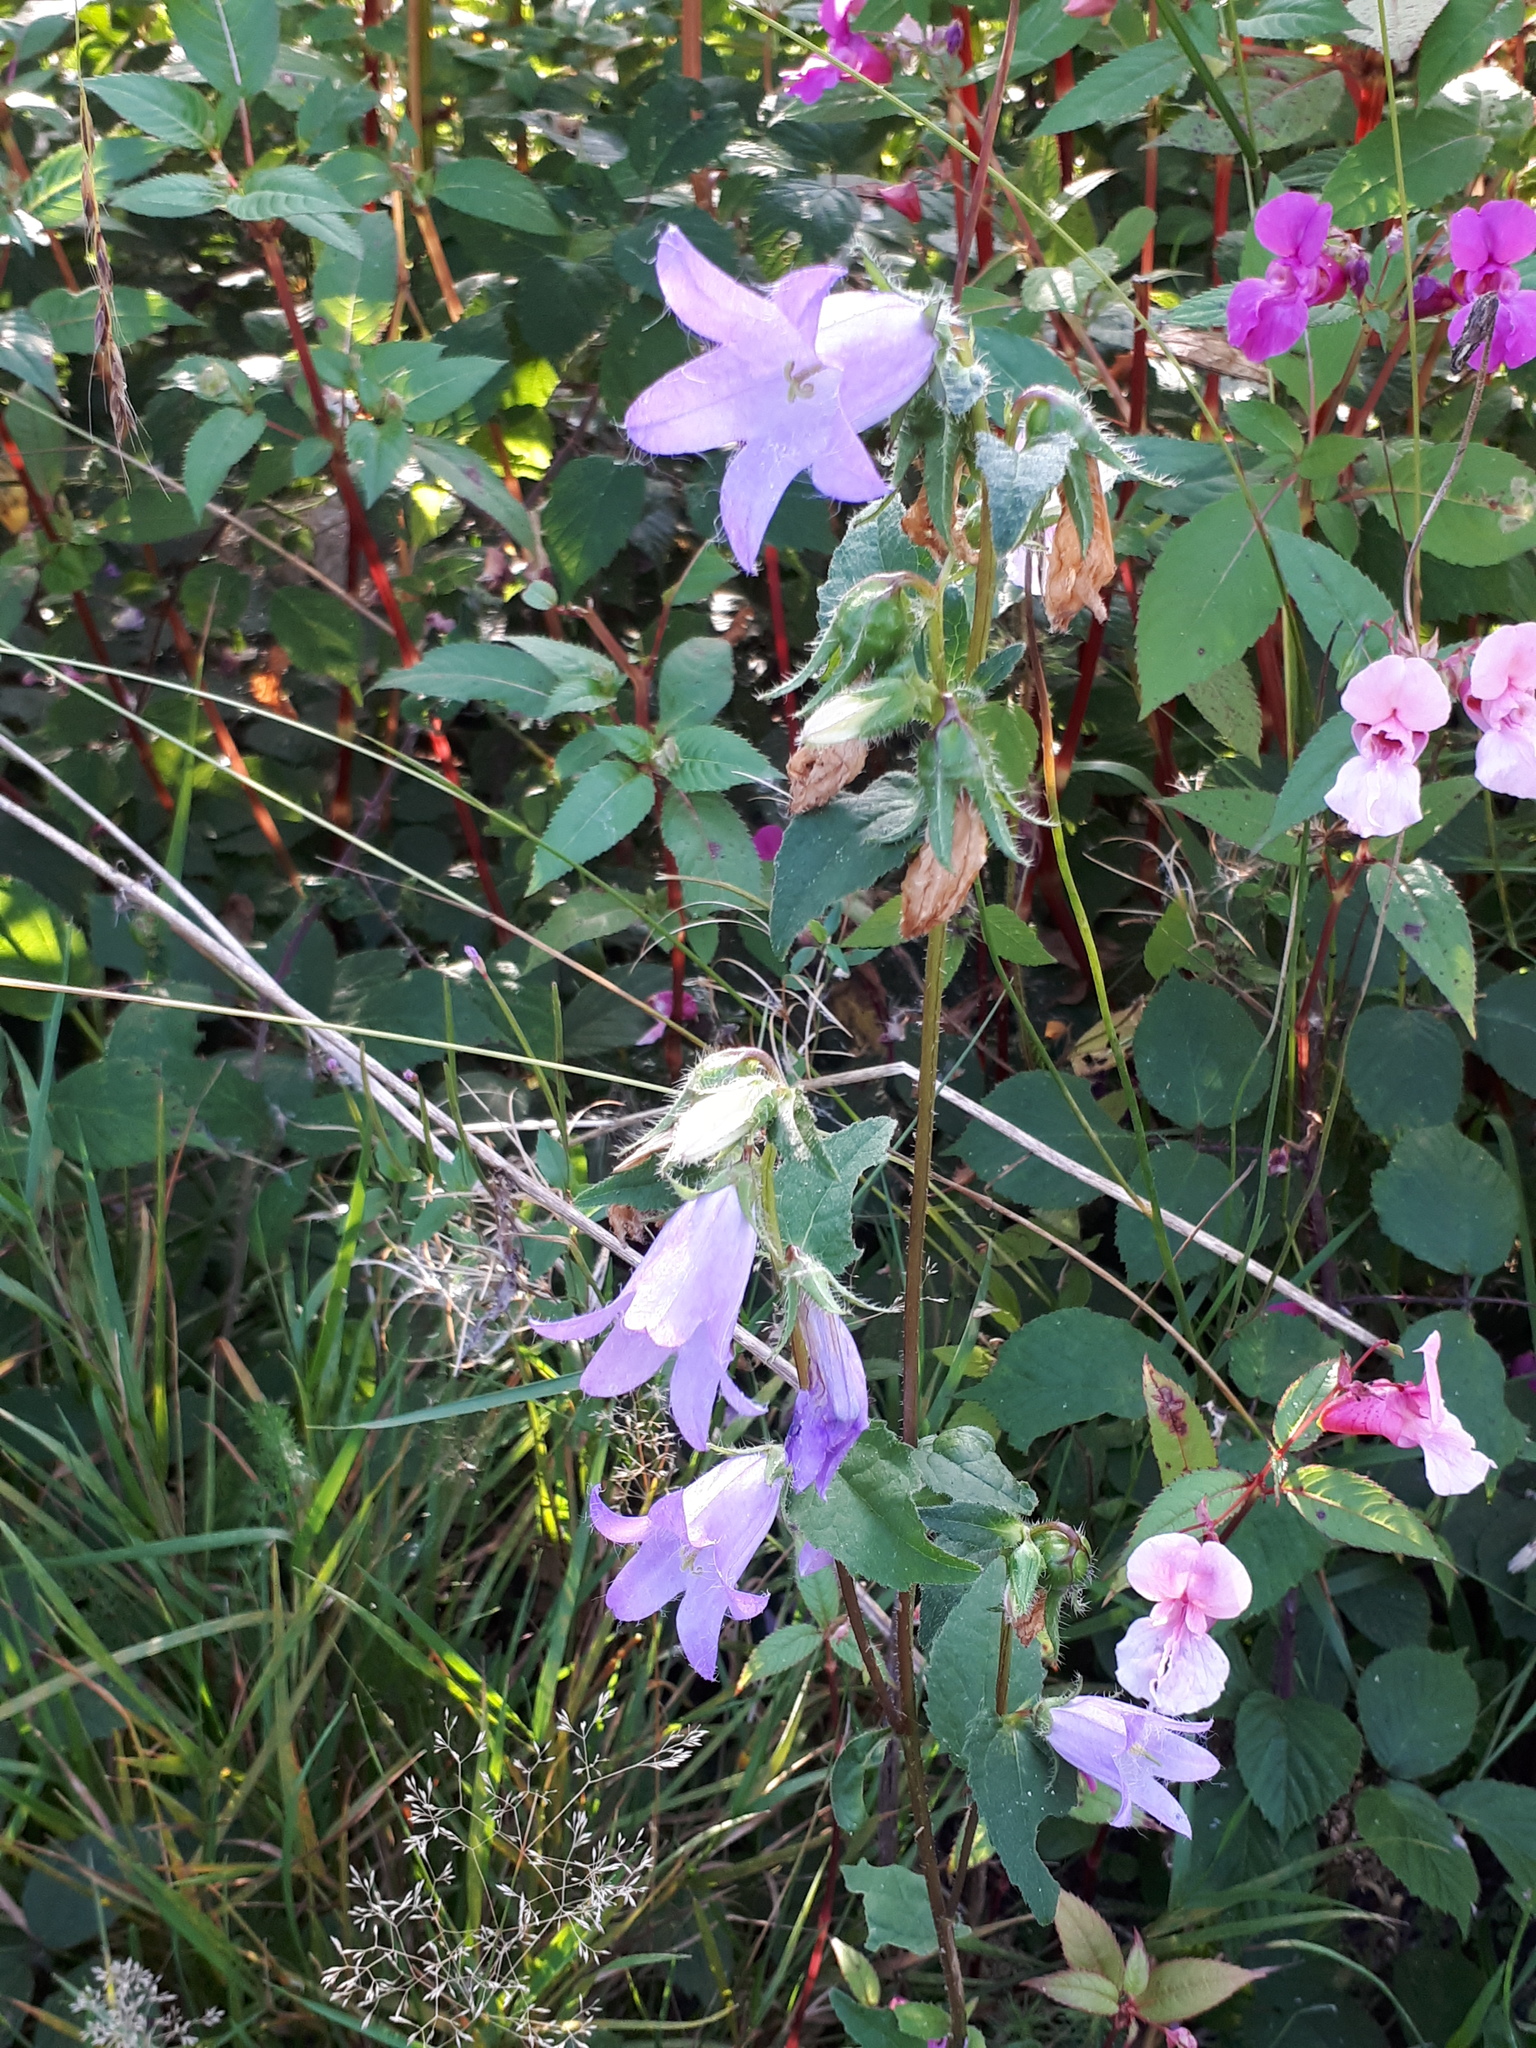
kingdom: Plantae
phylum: Tracheophyta
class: Magnoliopsida
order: Asterales
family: Campanulaceae
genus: Campanula
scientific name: Campanula trachelium
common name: Nettle-leaved bellflower
